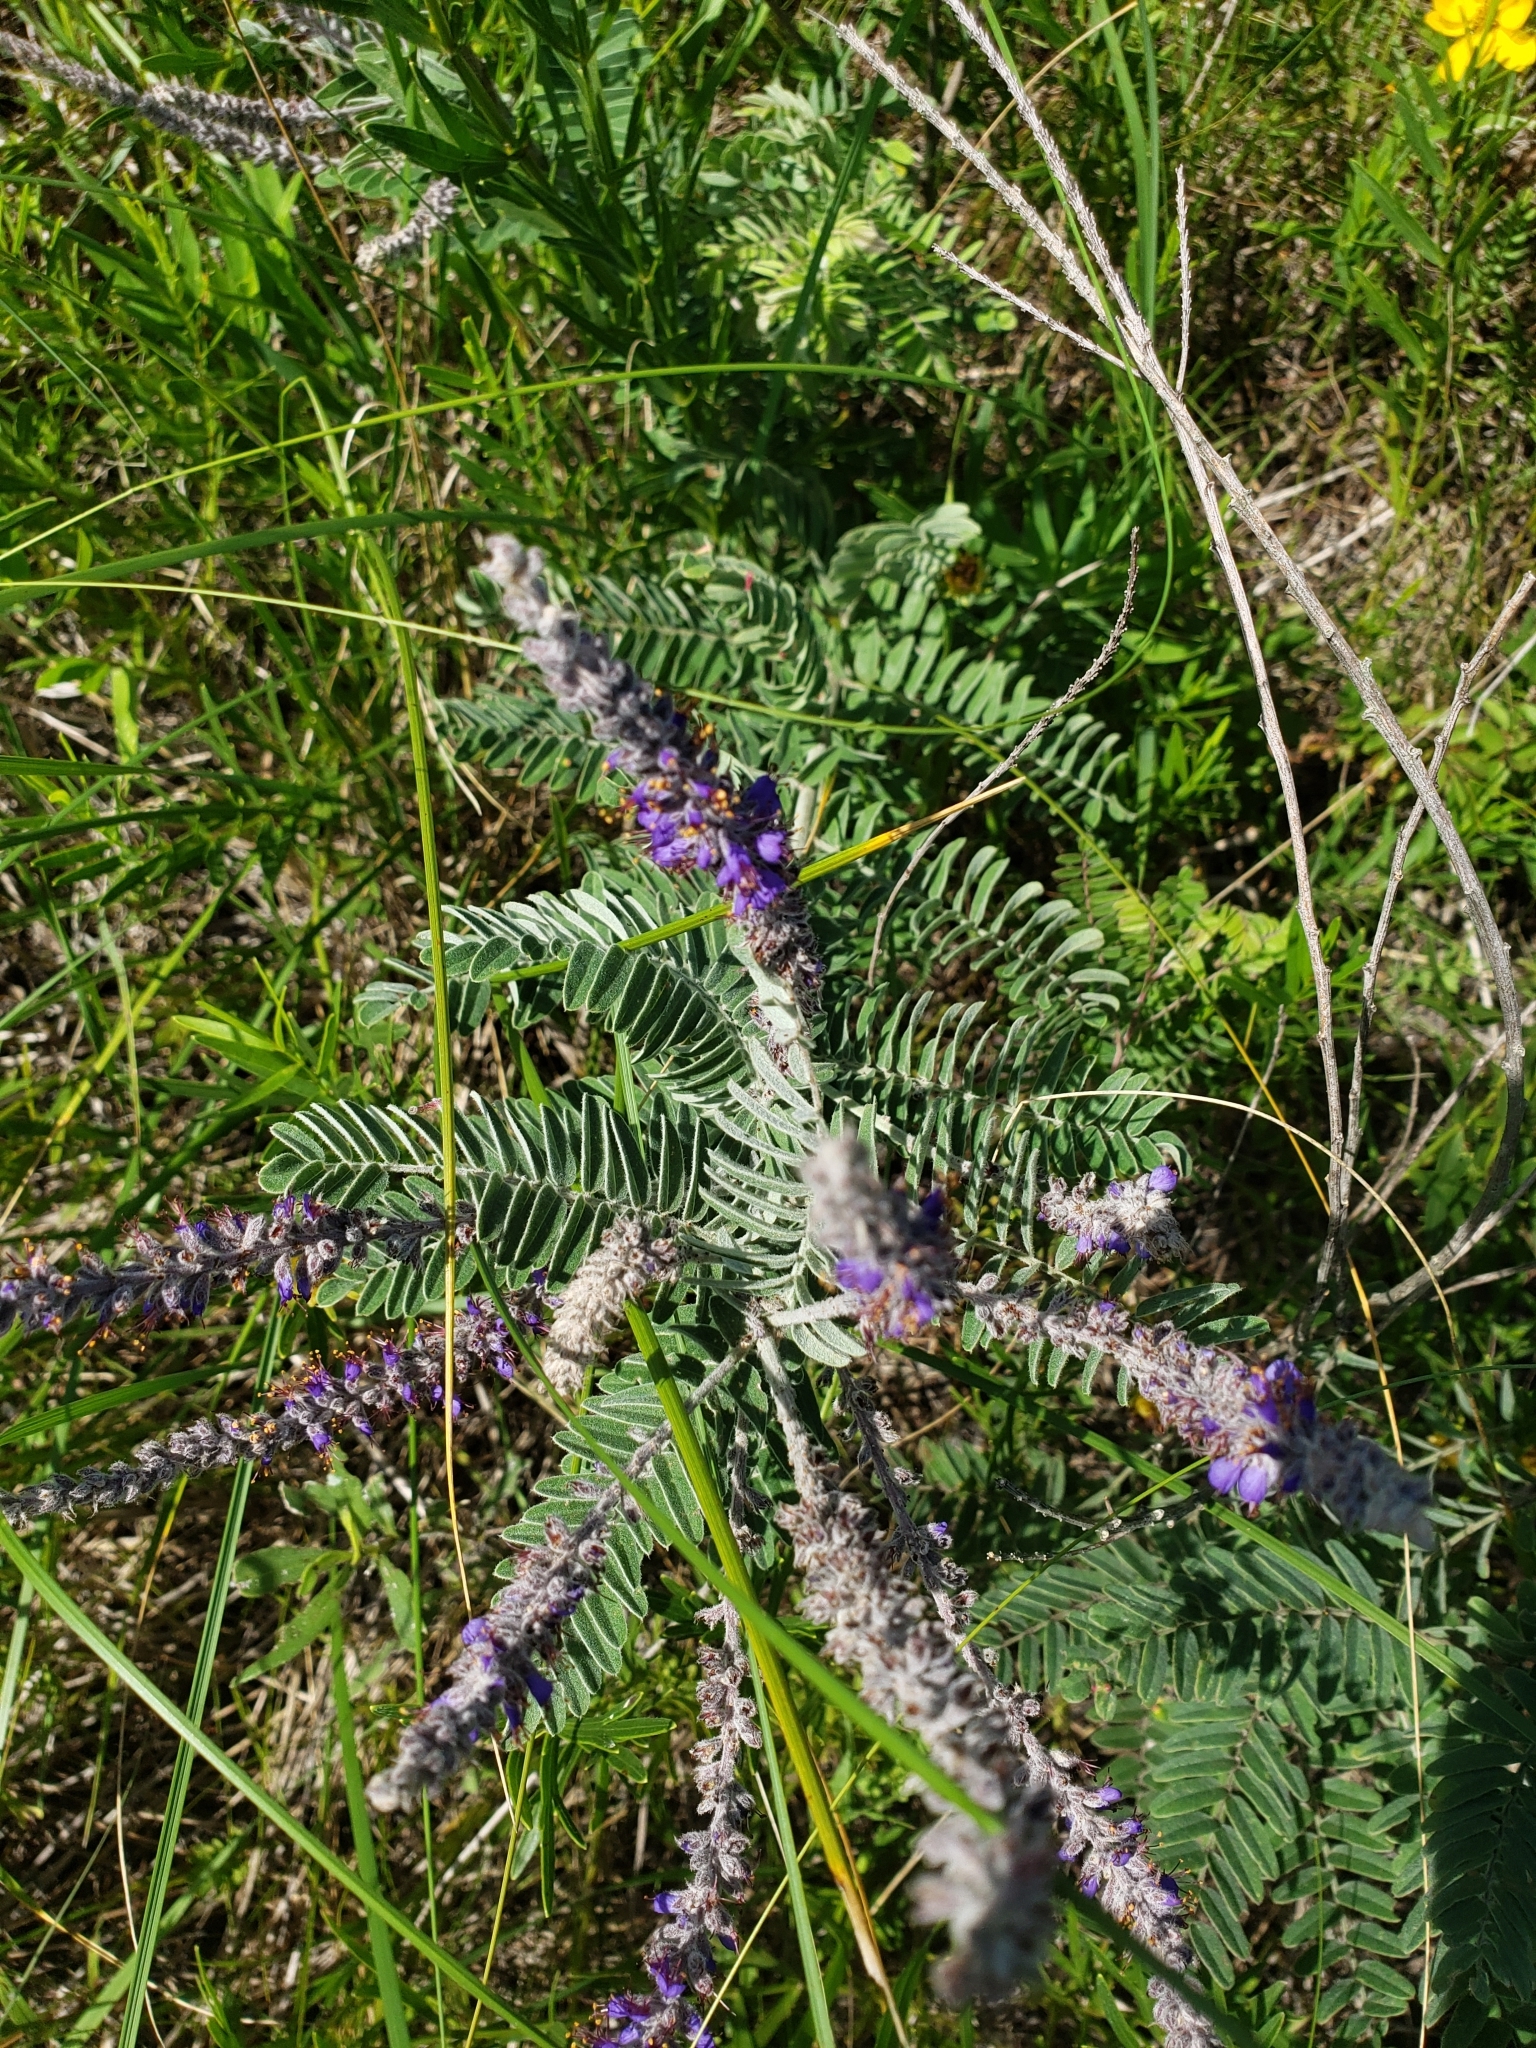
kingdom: Plantae
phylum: Tracheophyta
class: Magnoliopsida
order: Fabales
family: Fabaceae
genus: Amorpha
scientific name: Amorpha canescens
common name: Leadplant
